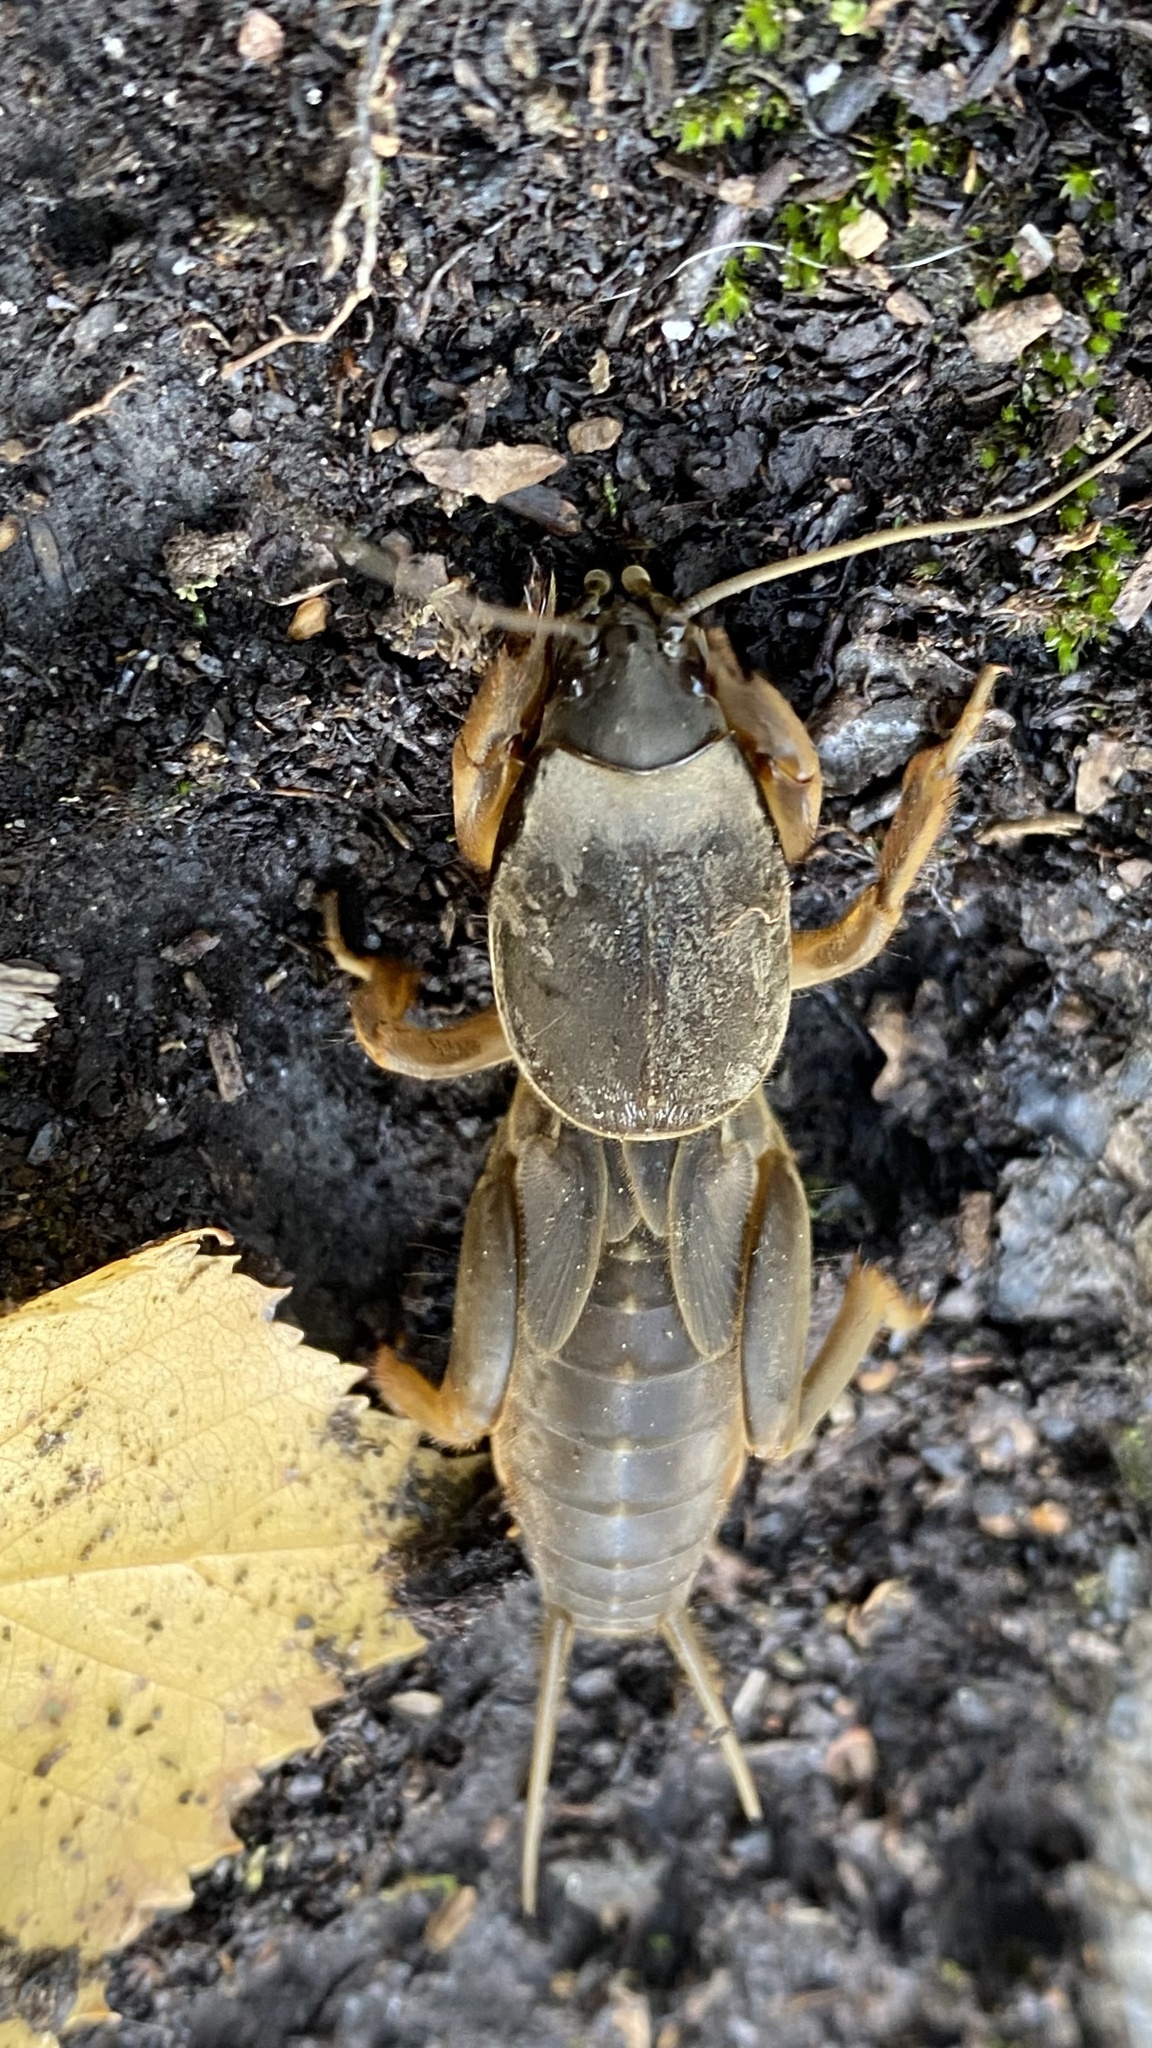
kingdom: Animalia
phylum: Arthropoda
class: Insecta
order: Orthoptera
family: Gryllotalpidae
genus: Gryllotalpa
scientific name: Gryllotalpa gryllotalpa
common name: European mole cricket
